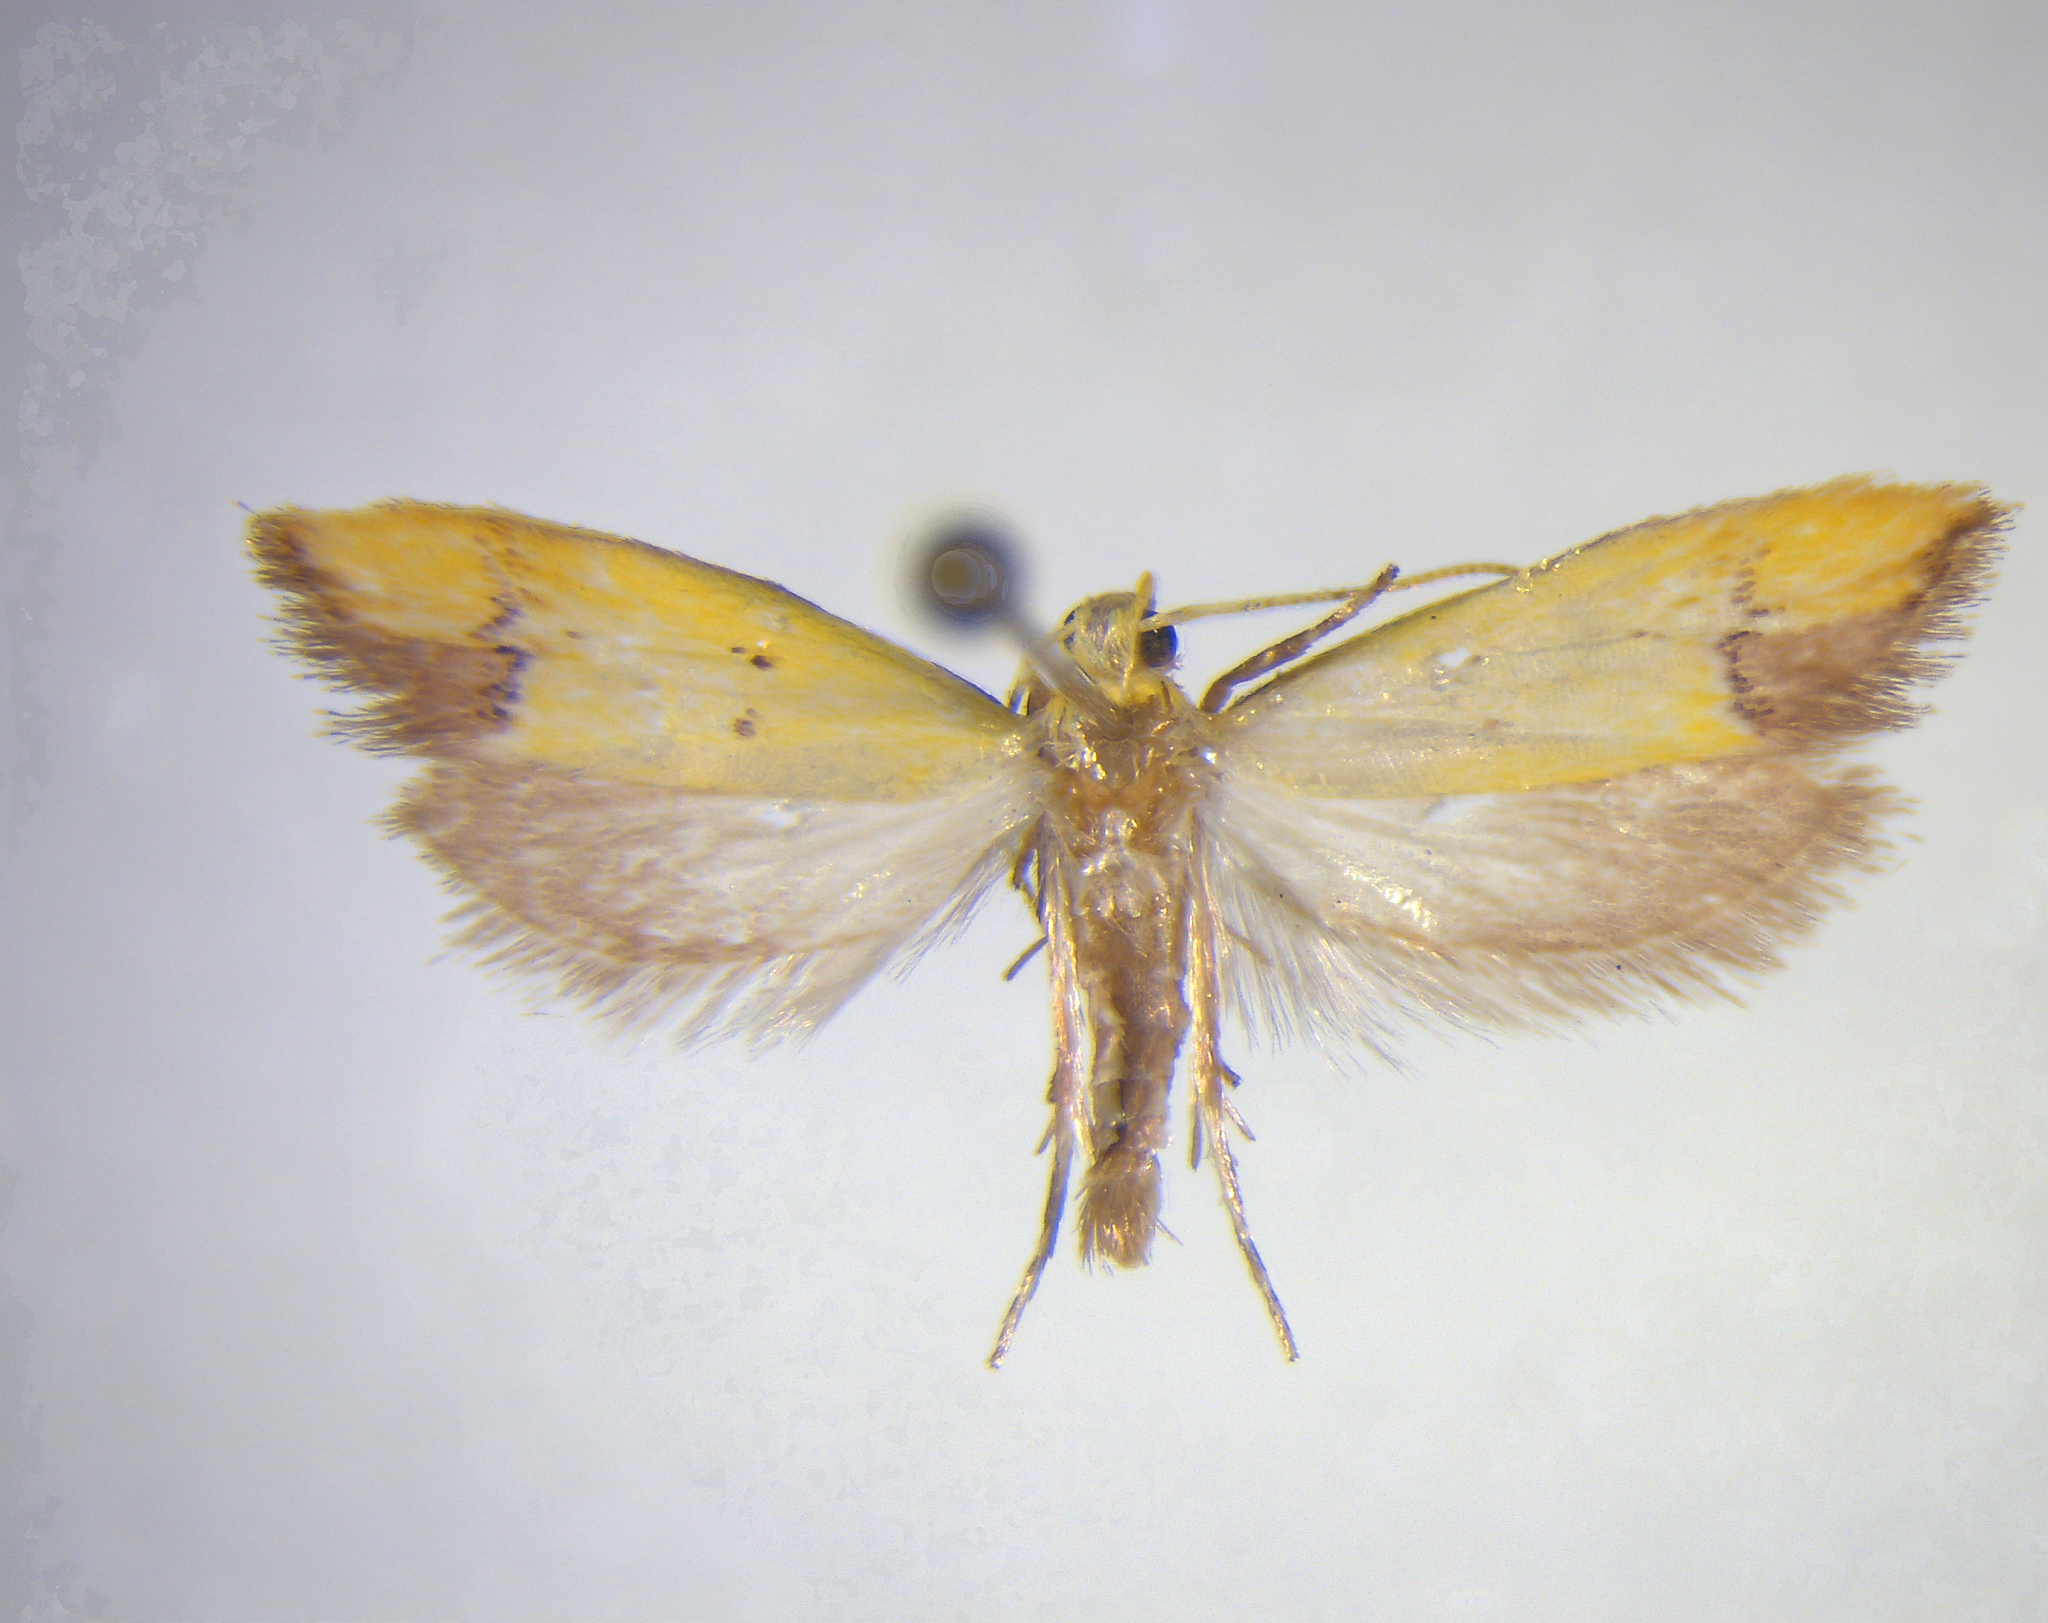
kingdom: Animalia
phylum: Arthropoda
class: Insecta
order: Lepidoptera
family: Oecophoridae
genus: Gymnobathra
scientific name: Gymnobathra flavidella
